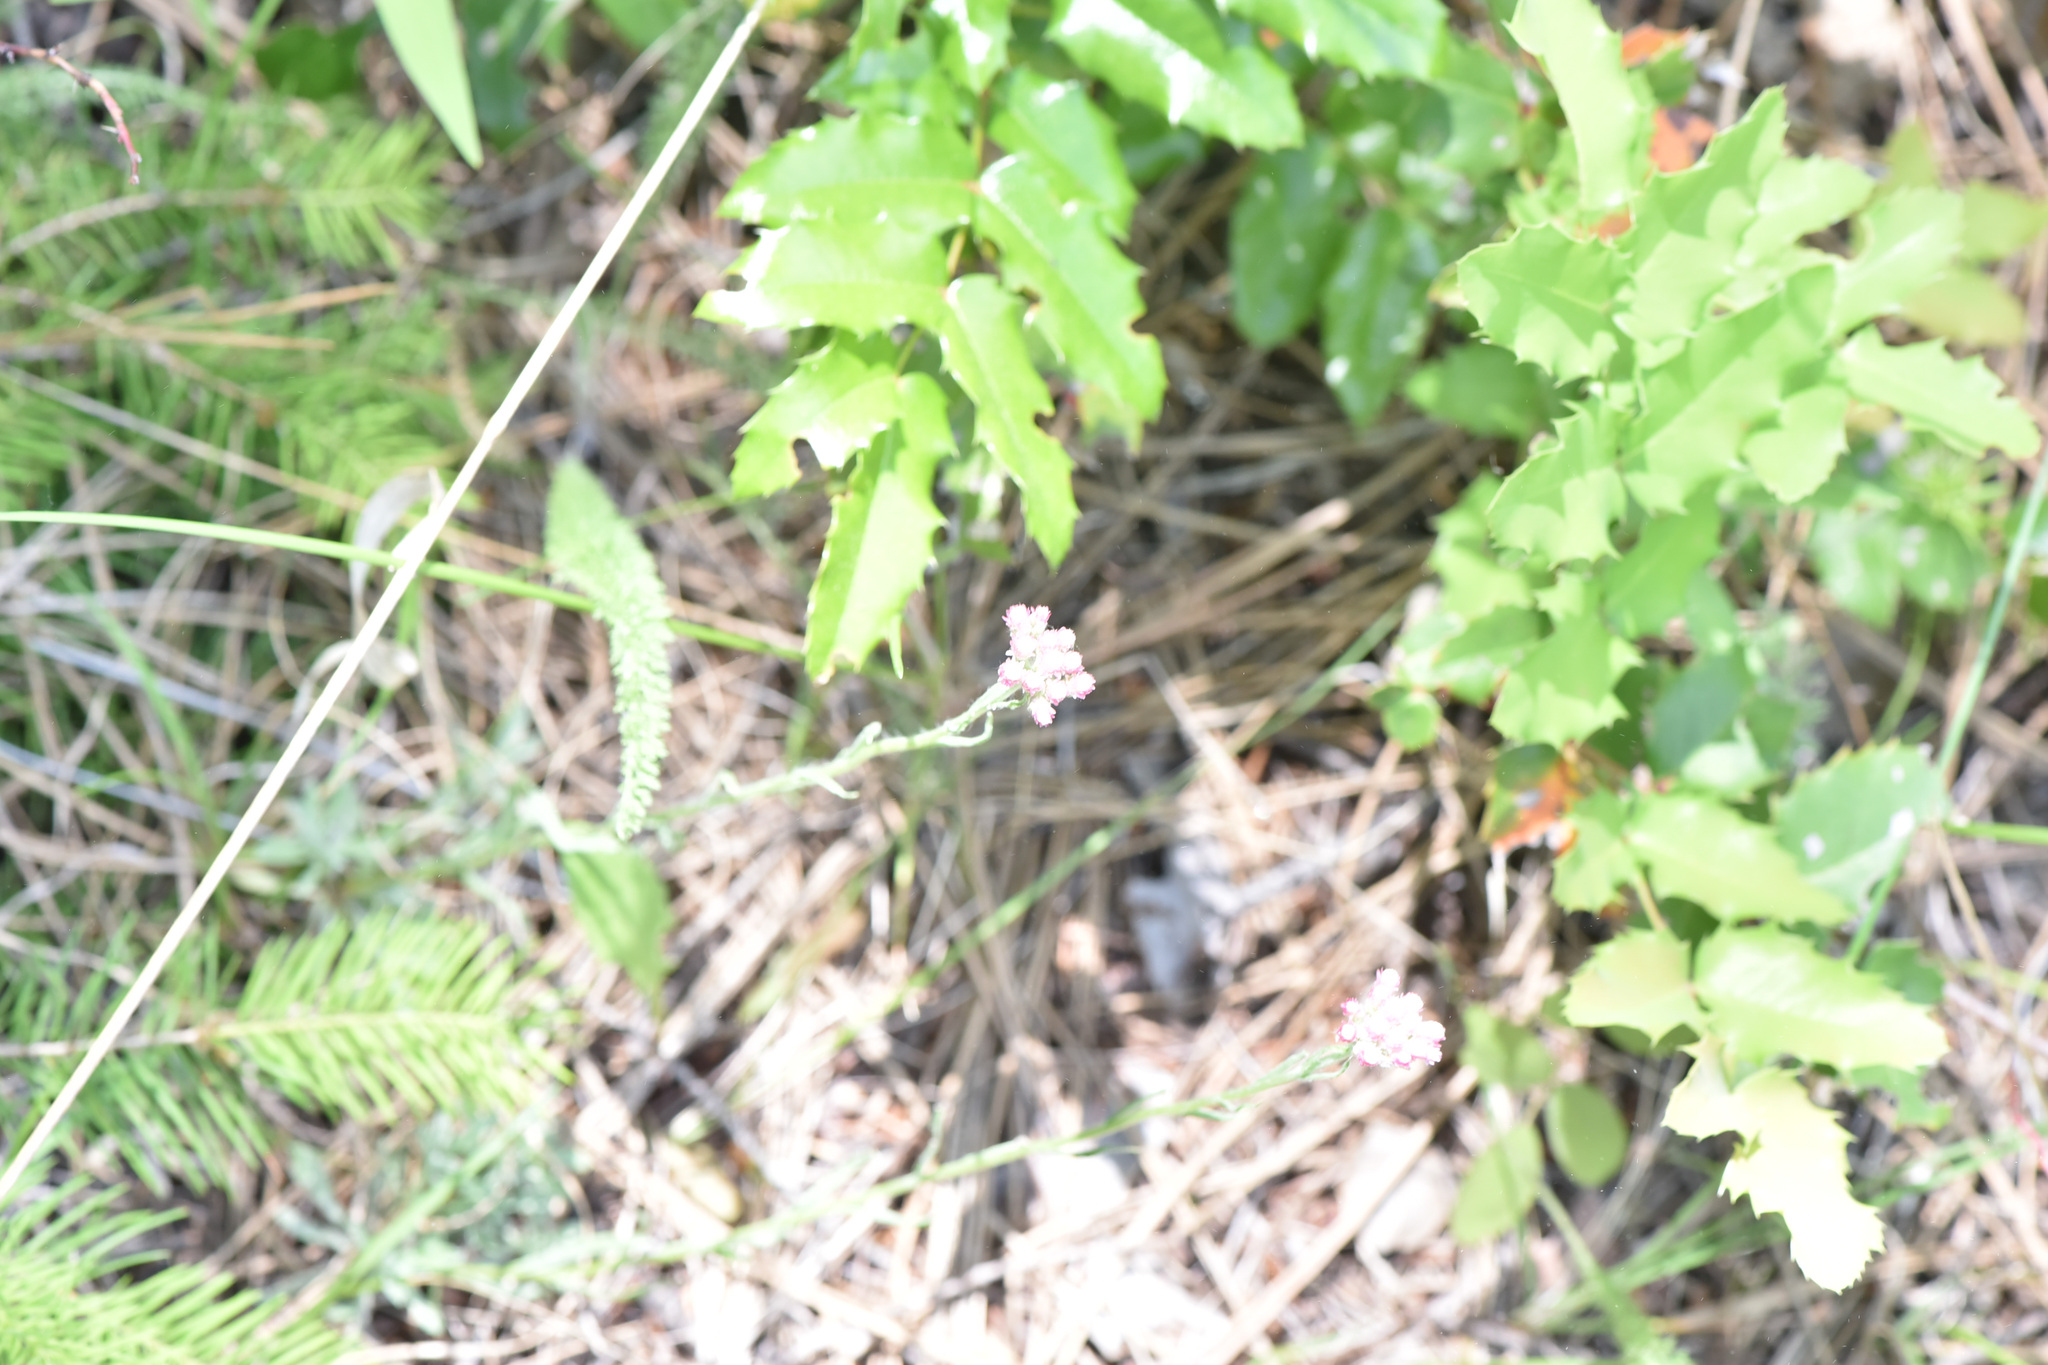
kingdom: Plantae
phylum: Tracheophyta
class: Magnoliopsida
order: Asterales
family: Asteraceae
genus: Antennaria
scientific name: Antennaria rosea
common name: Rosy pussytoes
